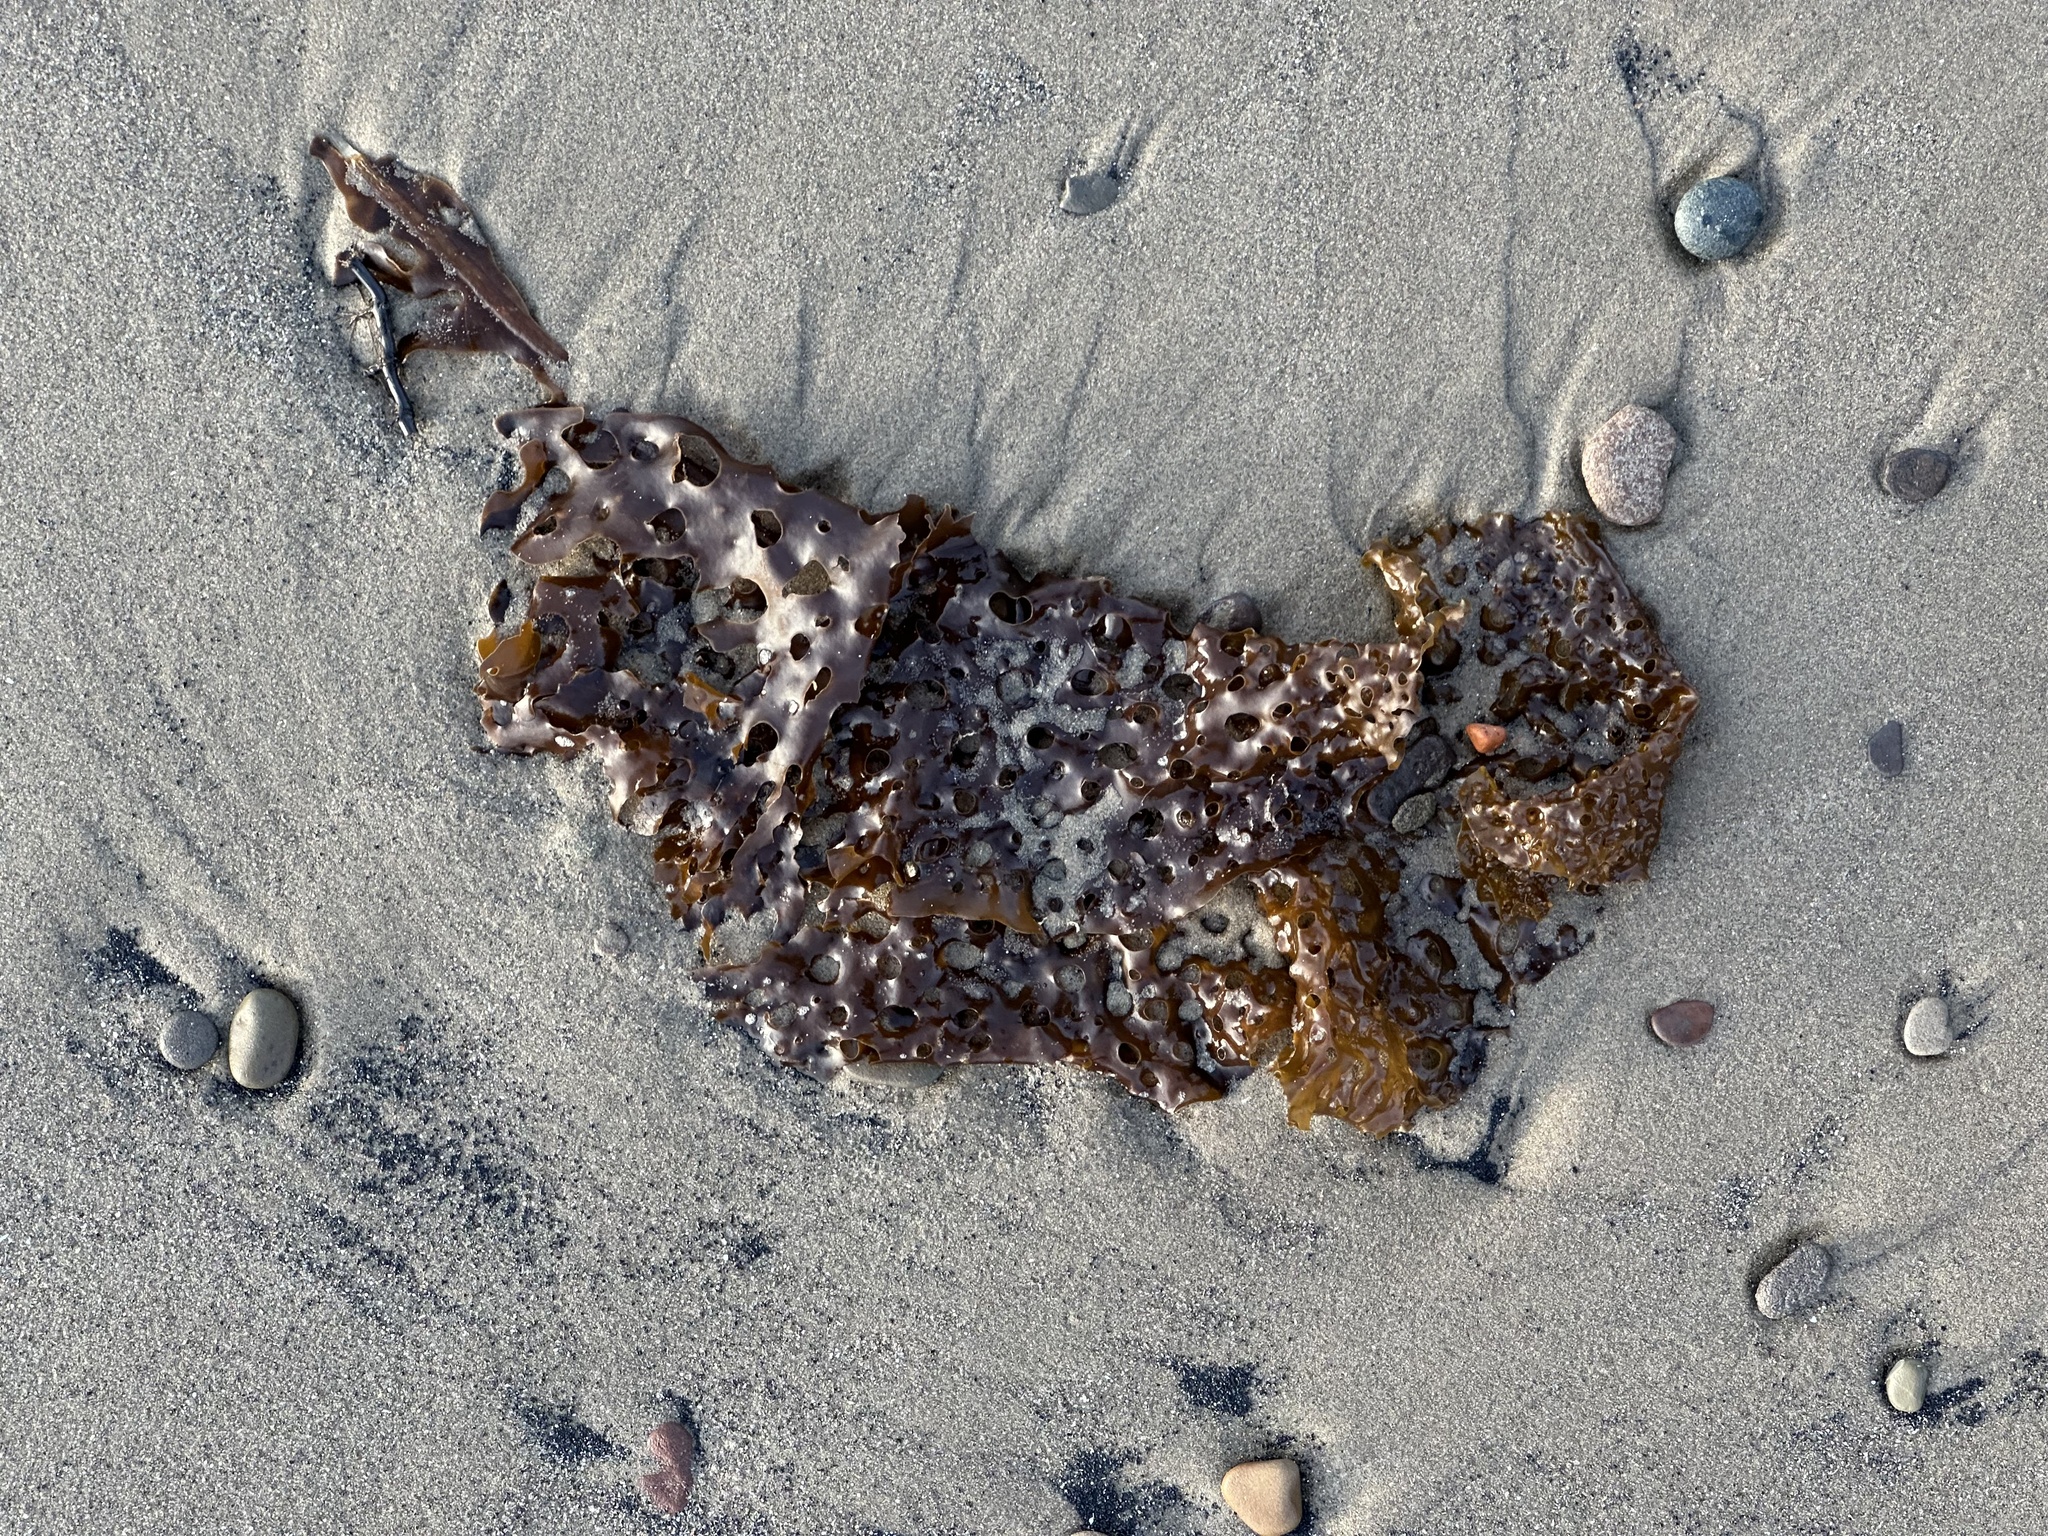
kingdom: Chromista
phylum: Ochrophyta
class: Phaeophyceae
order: Laminariales
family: Costariaceae
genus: Agarum
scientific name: Agarum clathratum
